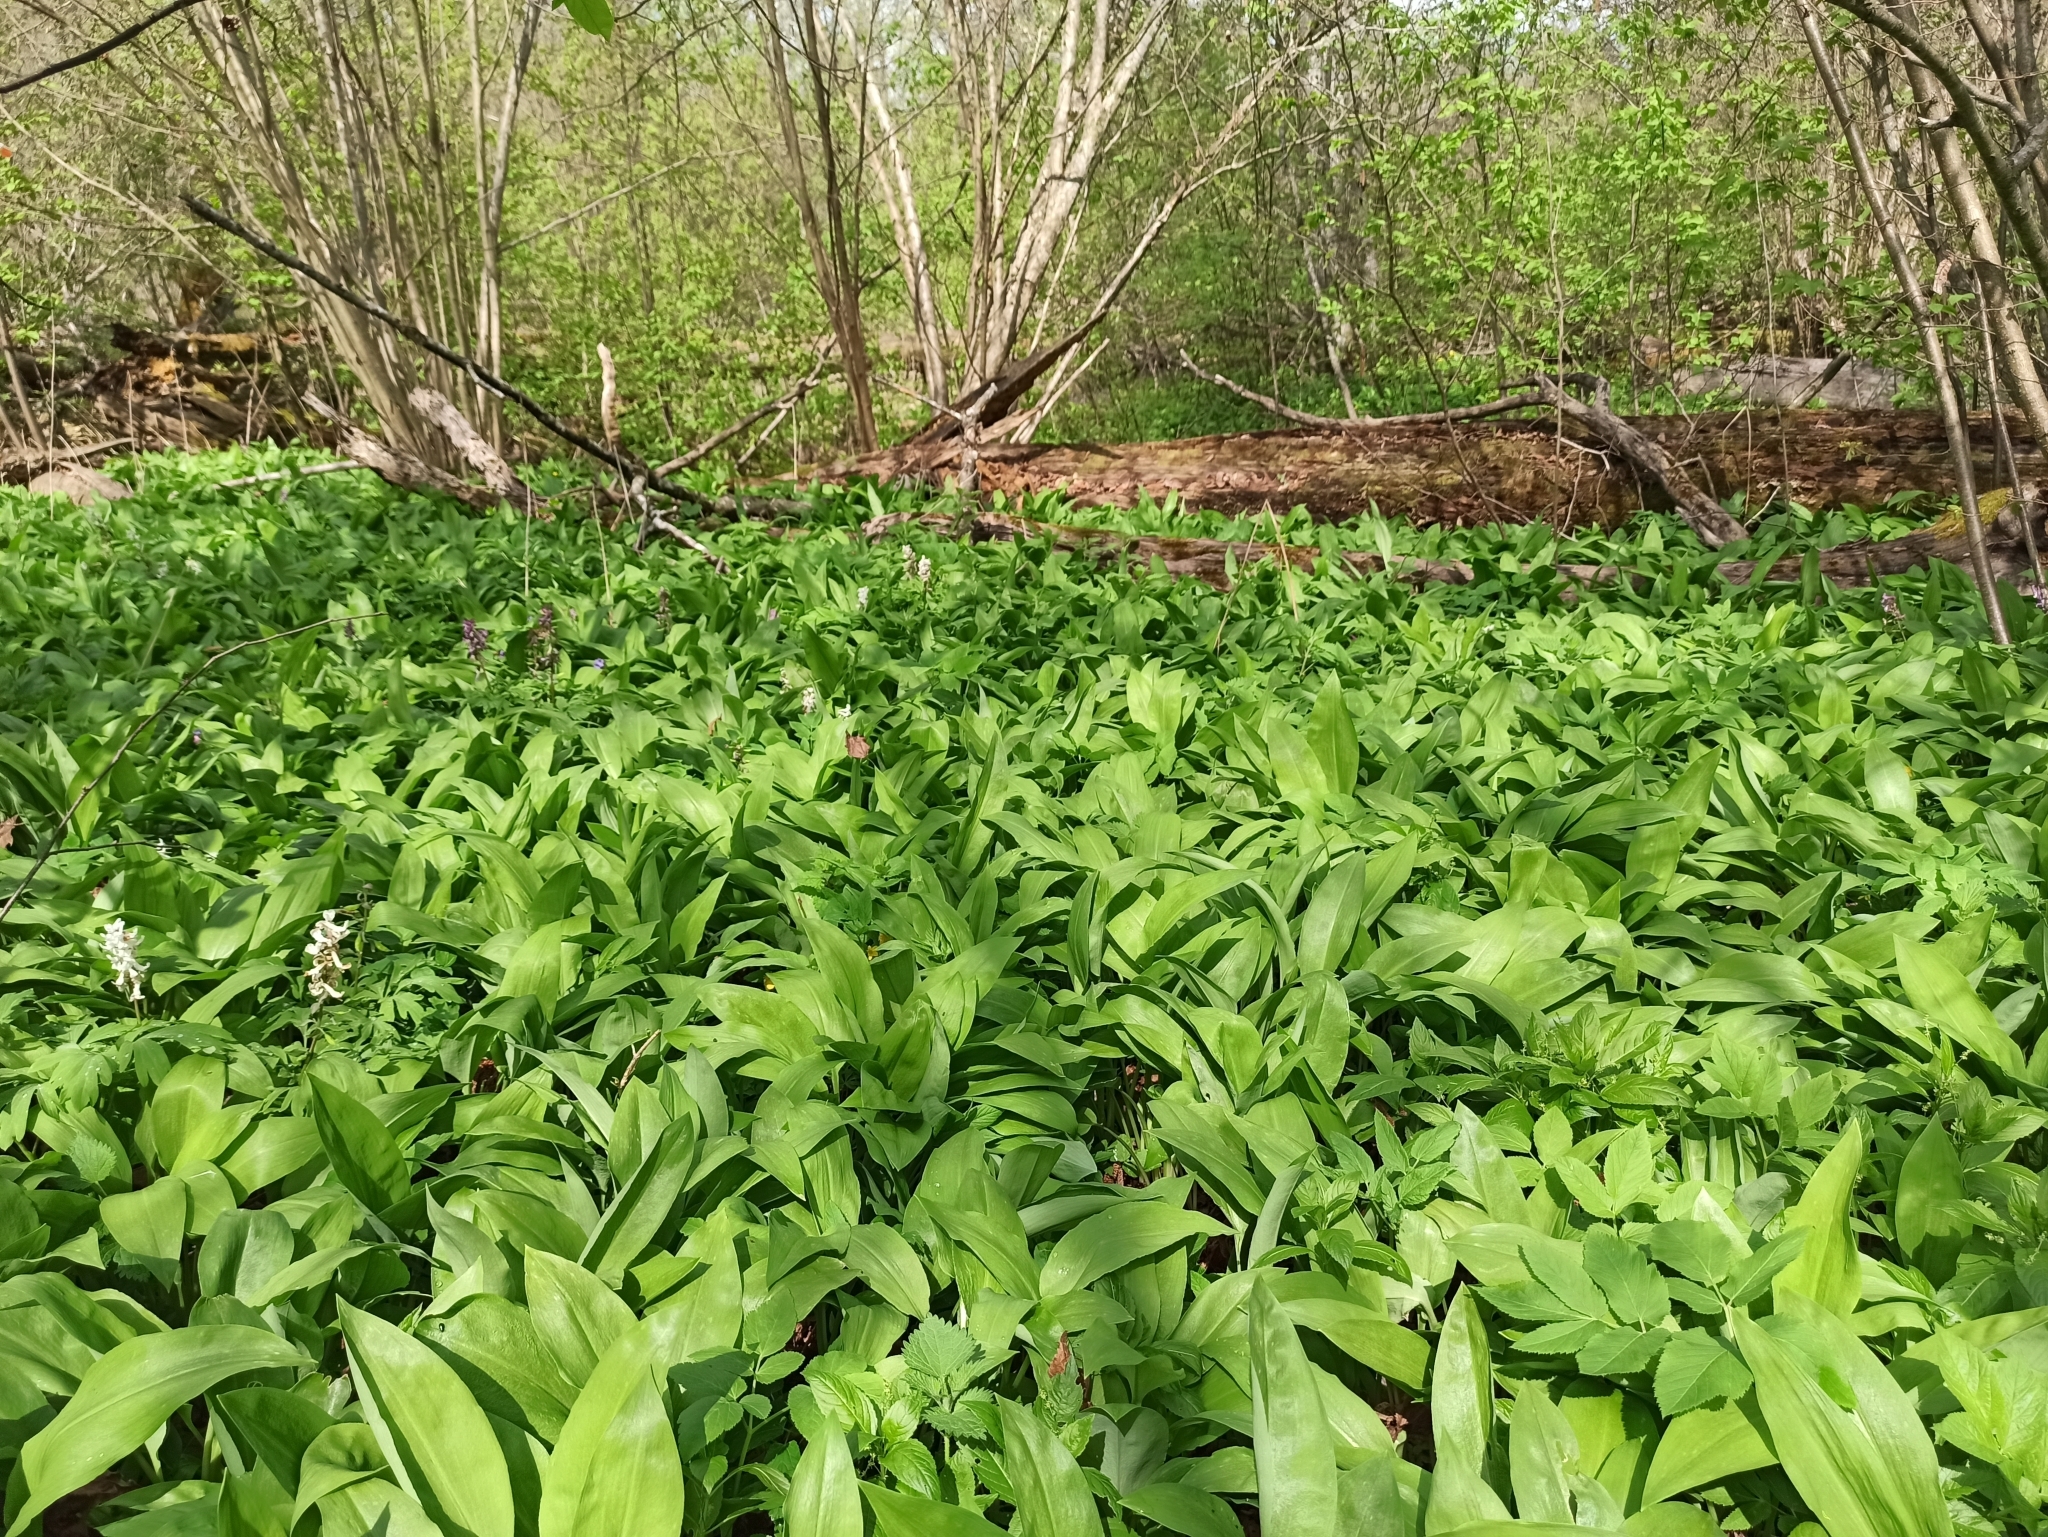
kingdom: Plantae
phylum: Tracheophyta
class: Liliopsida
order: Asparagales
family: Amaryllidaceae
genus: Allium
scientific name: Allium ursinum
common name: Ramsons
